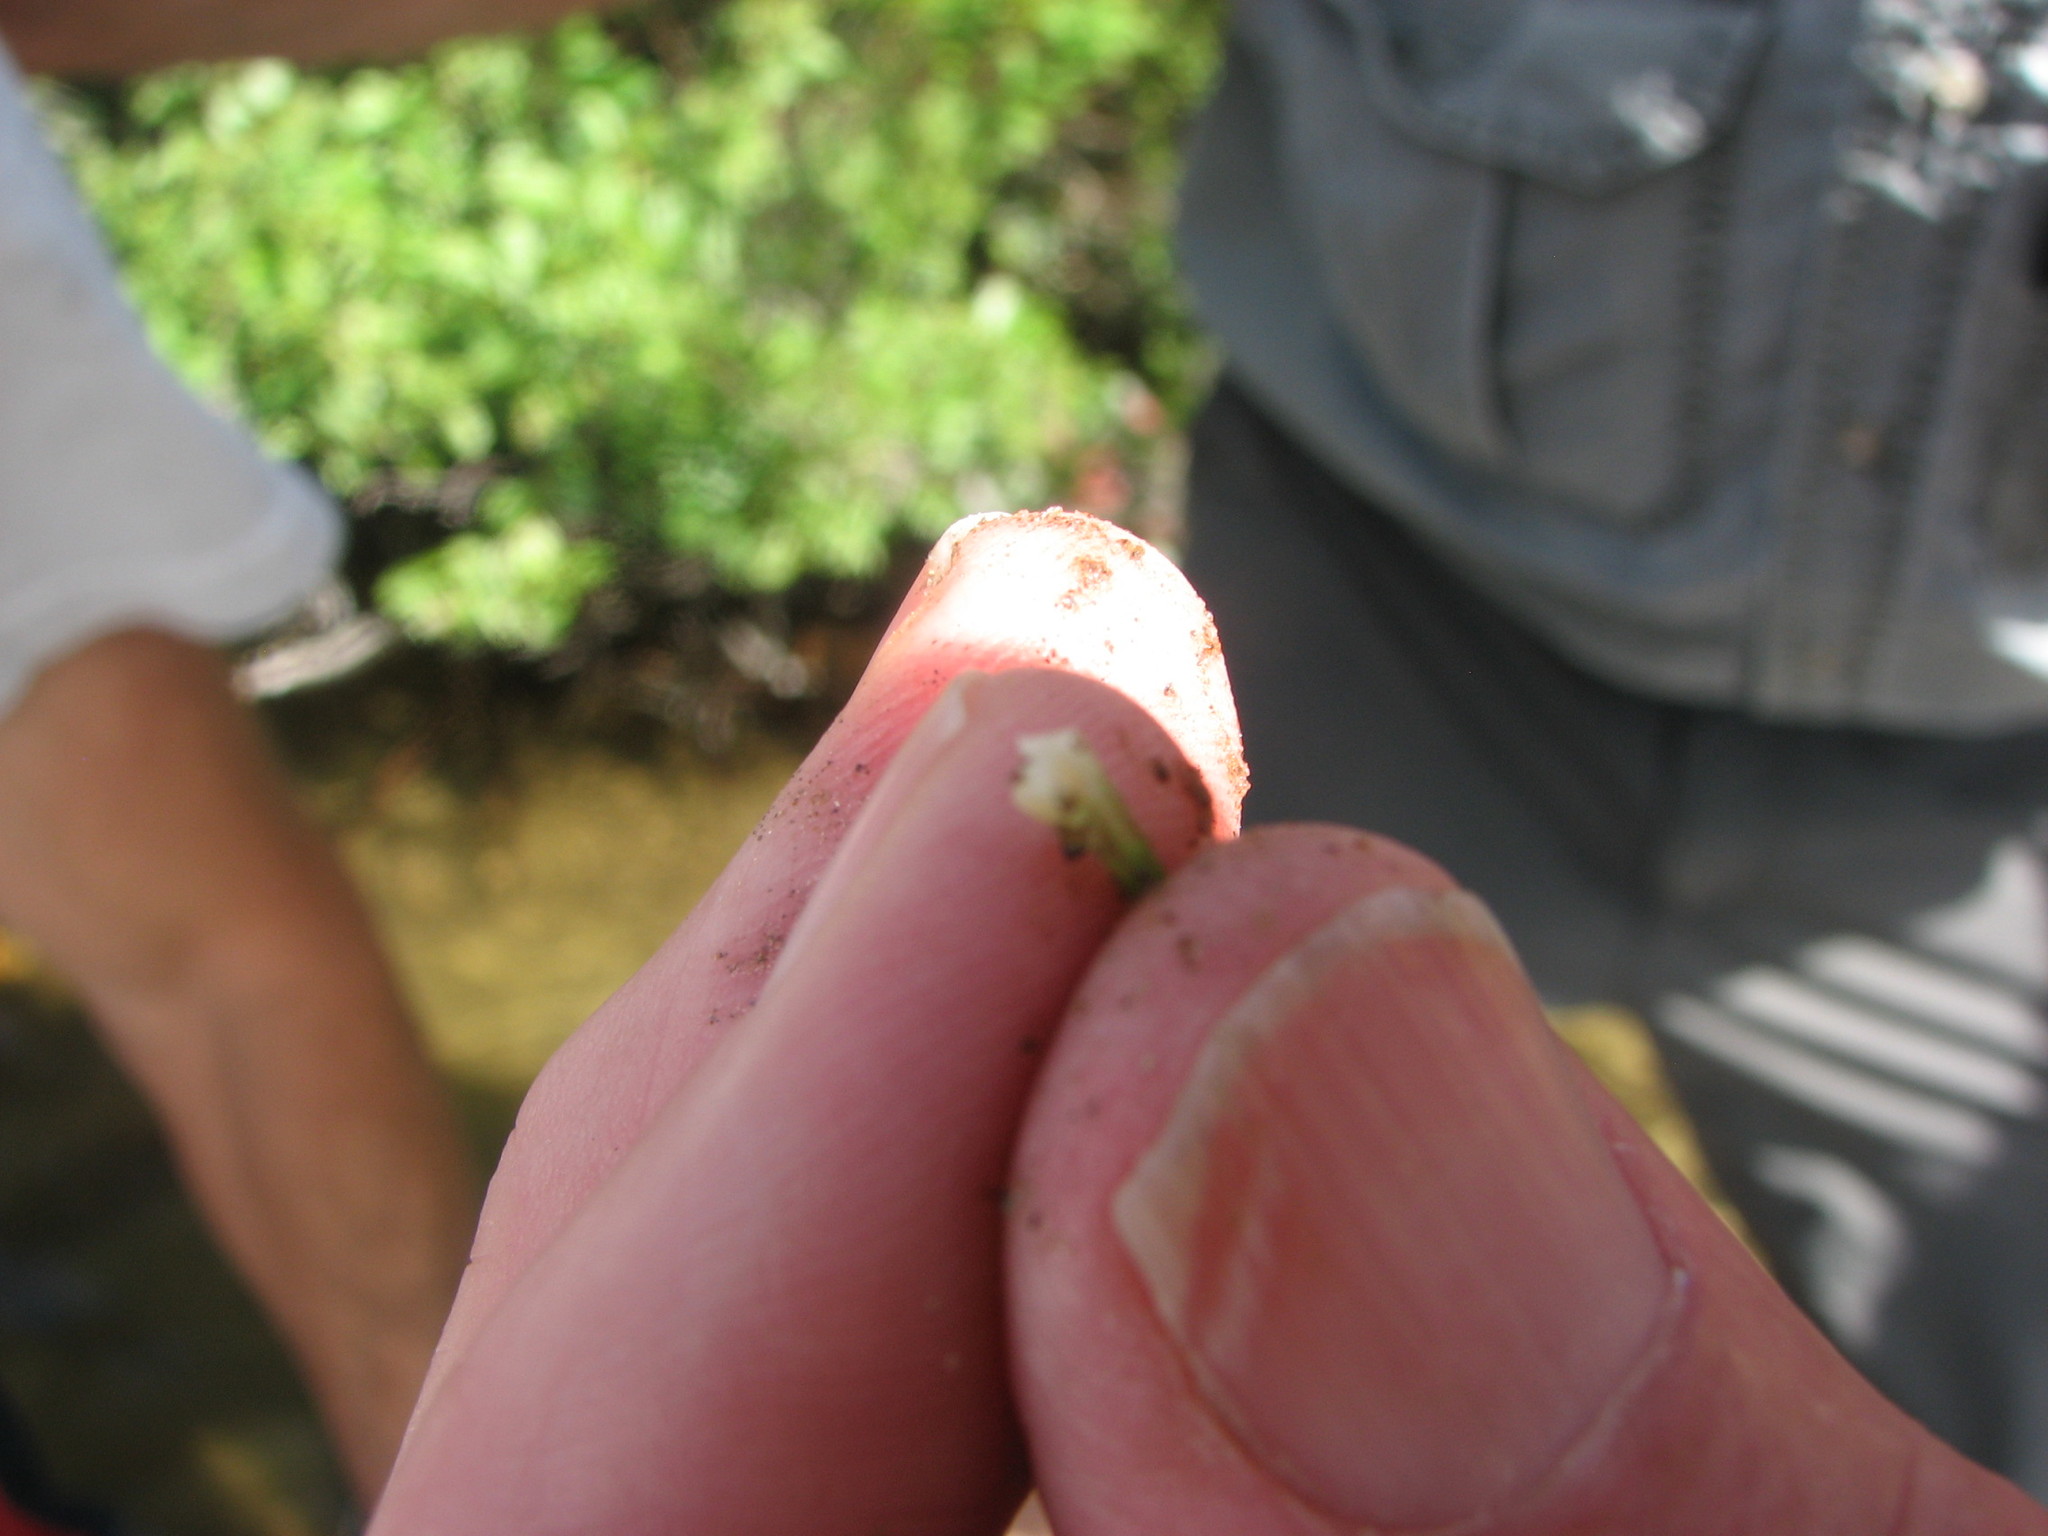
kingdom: Plantae
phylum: Tracheophyta
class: Lycopodiopsida
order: Isoetales
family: Isoetaceae
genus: Isoetes
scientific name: Isoetes viridimontana
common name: Green mountain quillwort
